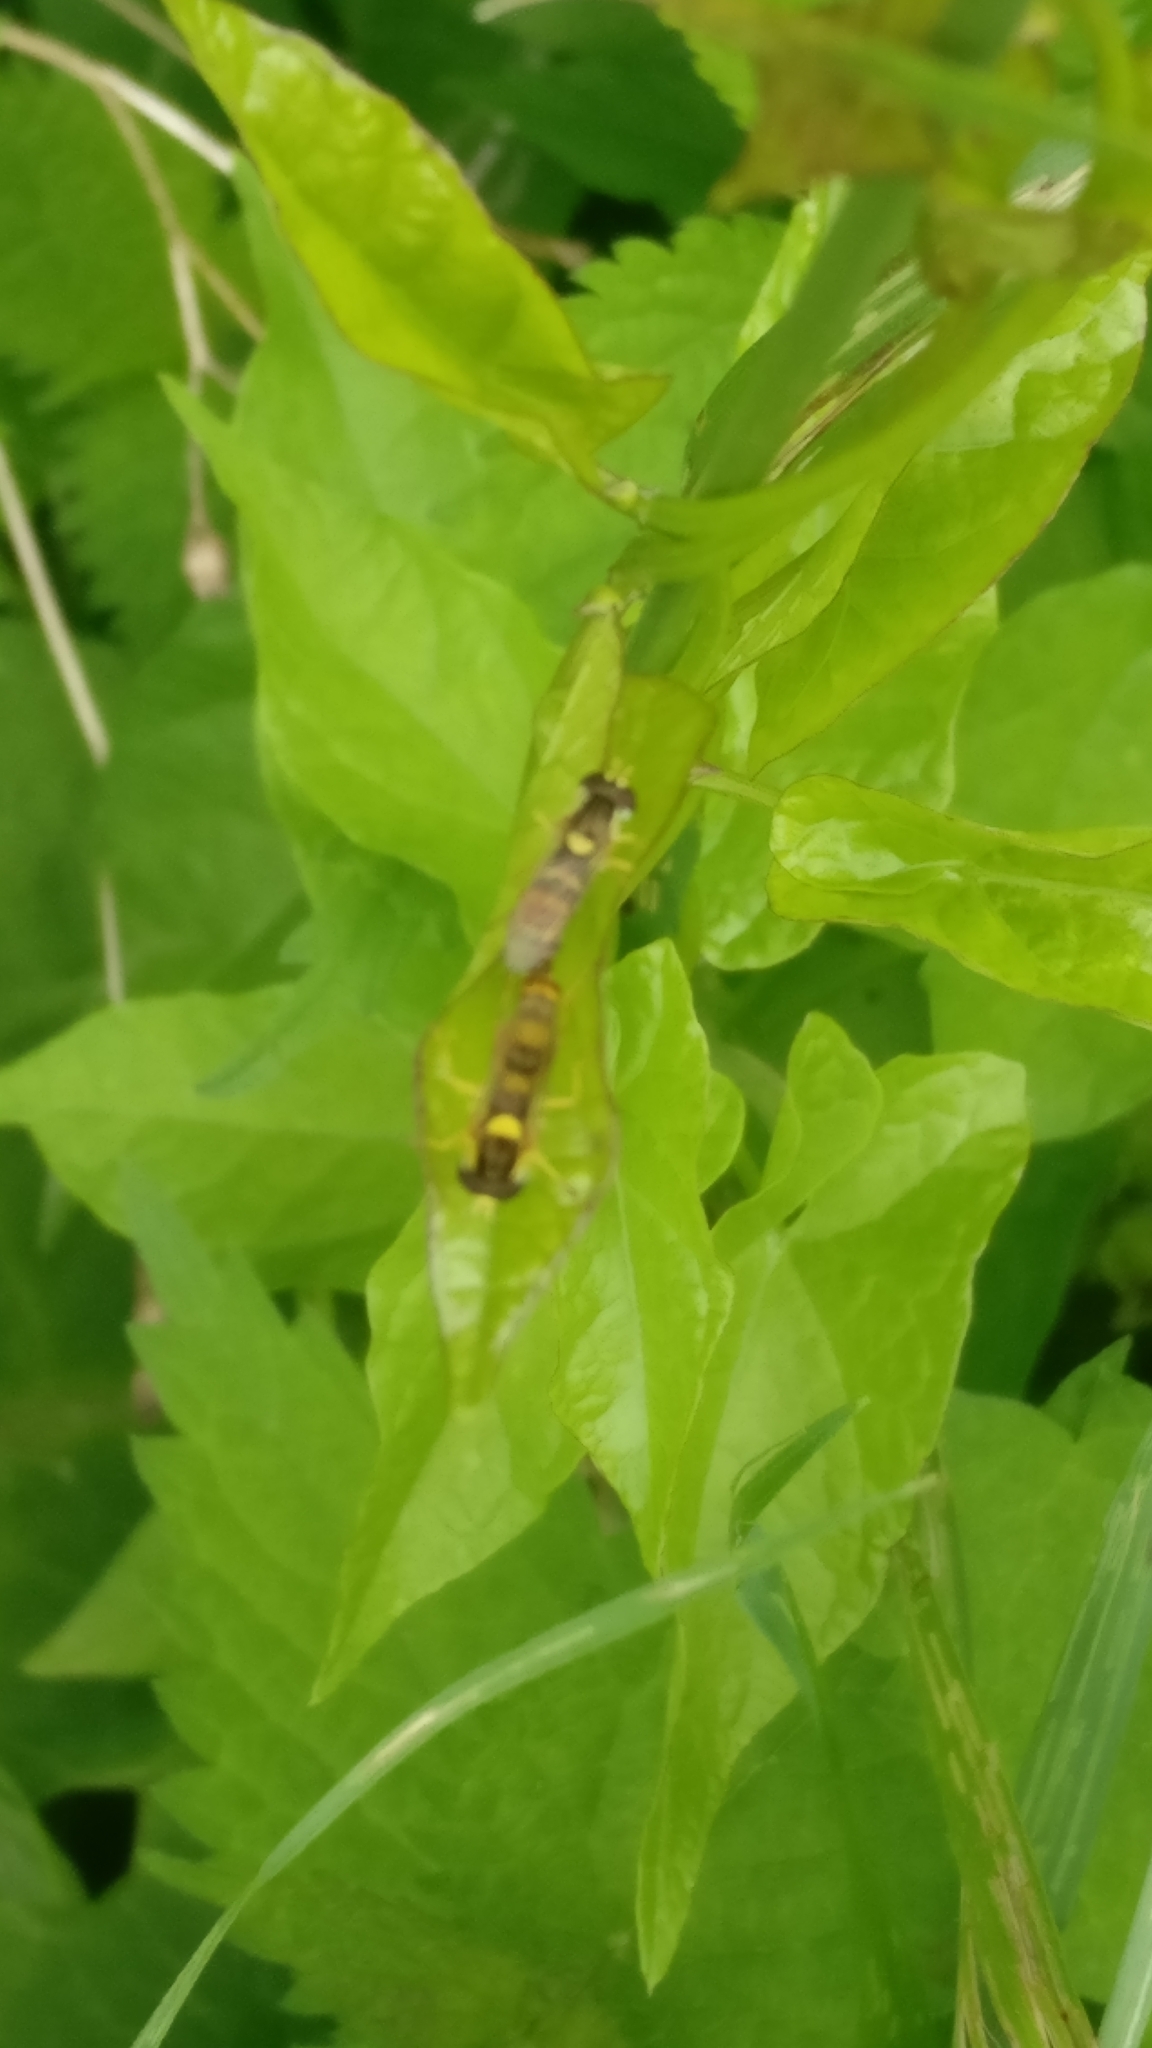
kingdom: Animalia
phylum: Arthropoda
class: Insecta
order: Diptera
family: Syrphidae
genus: Sphaerophoria
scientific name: Sphaerophoria
